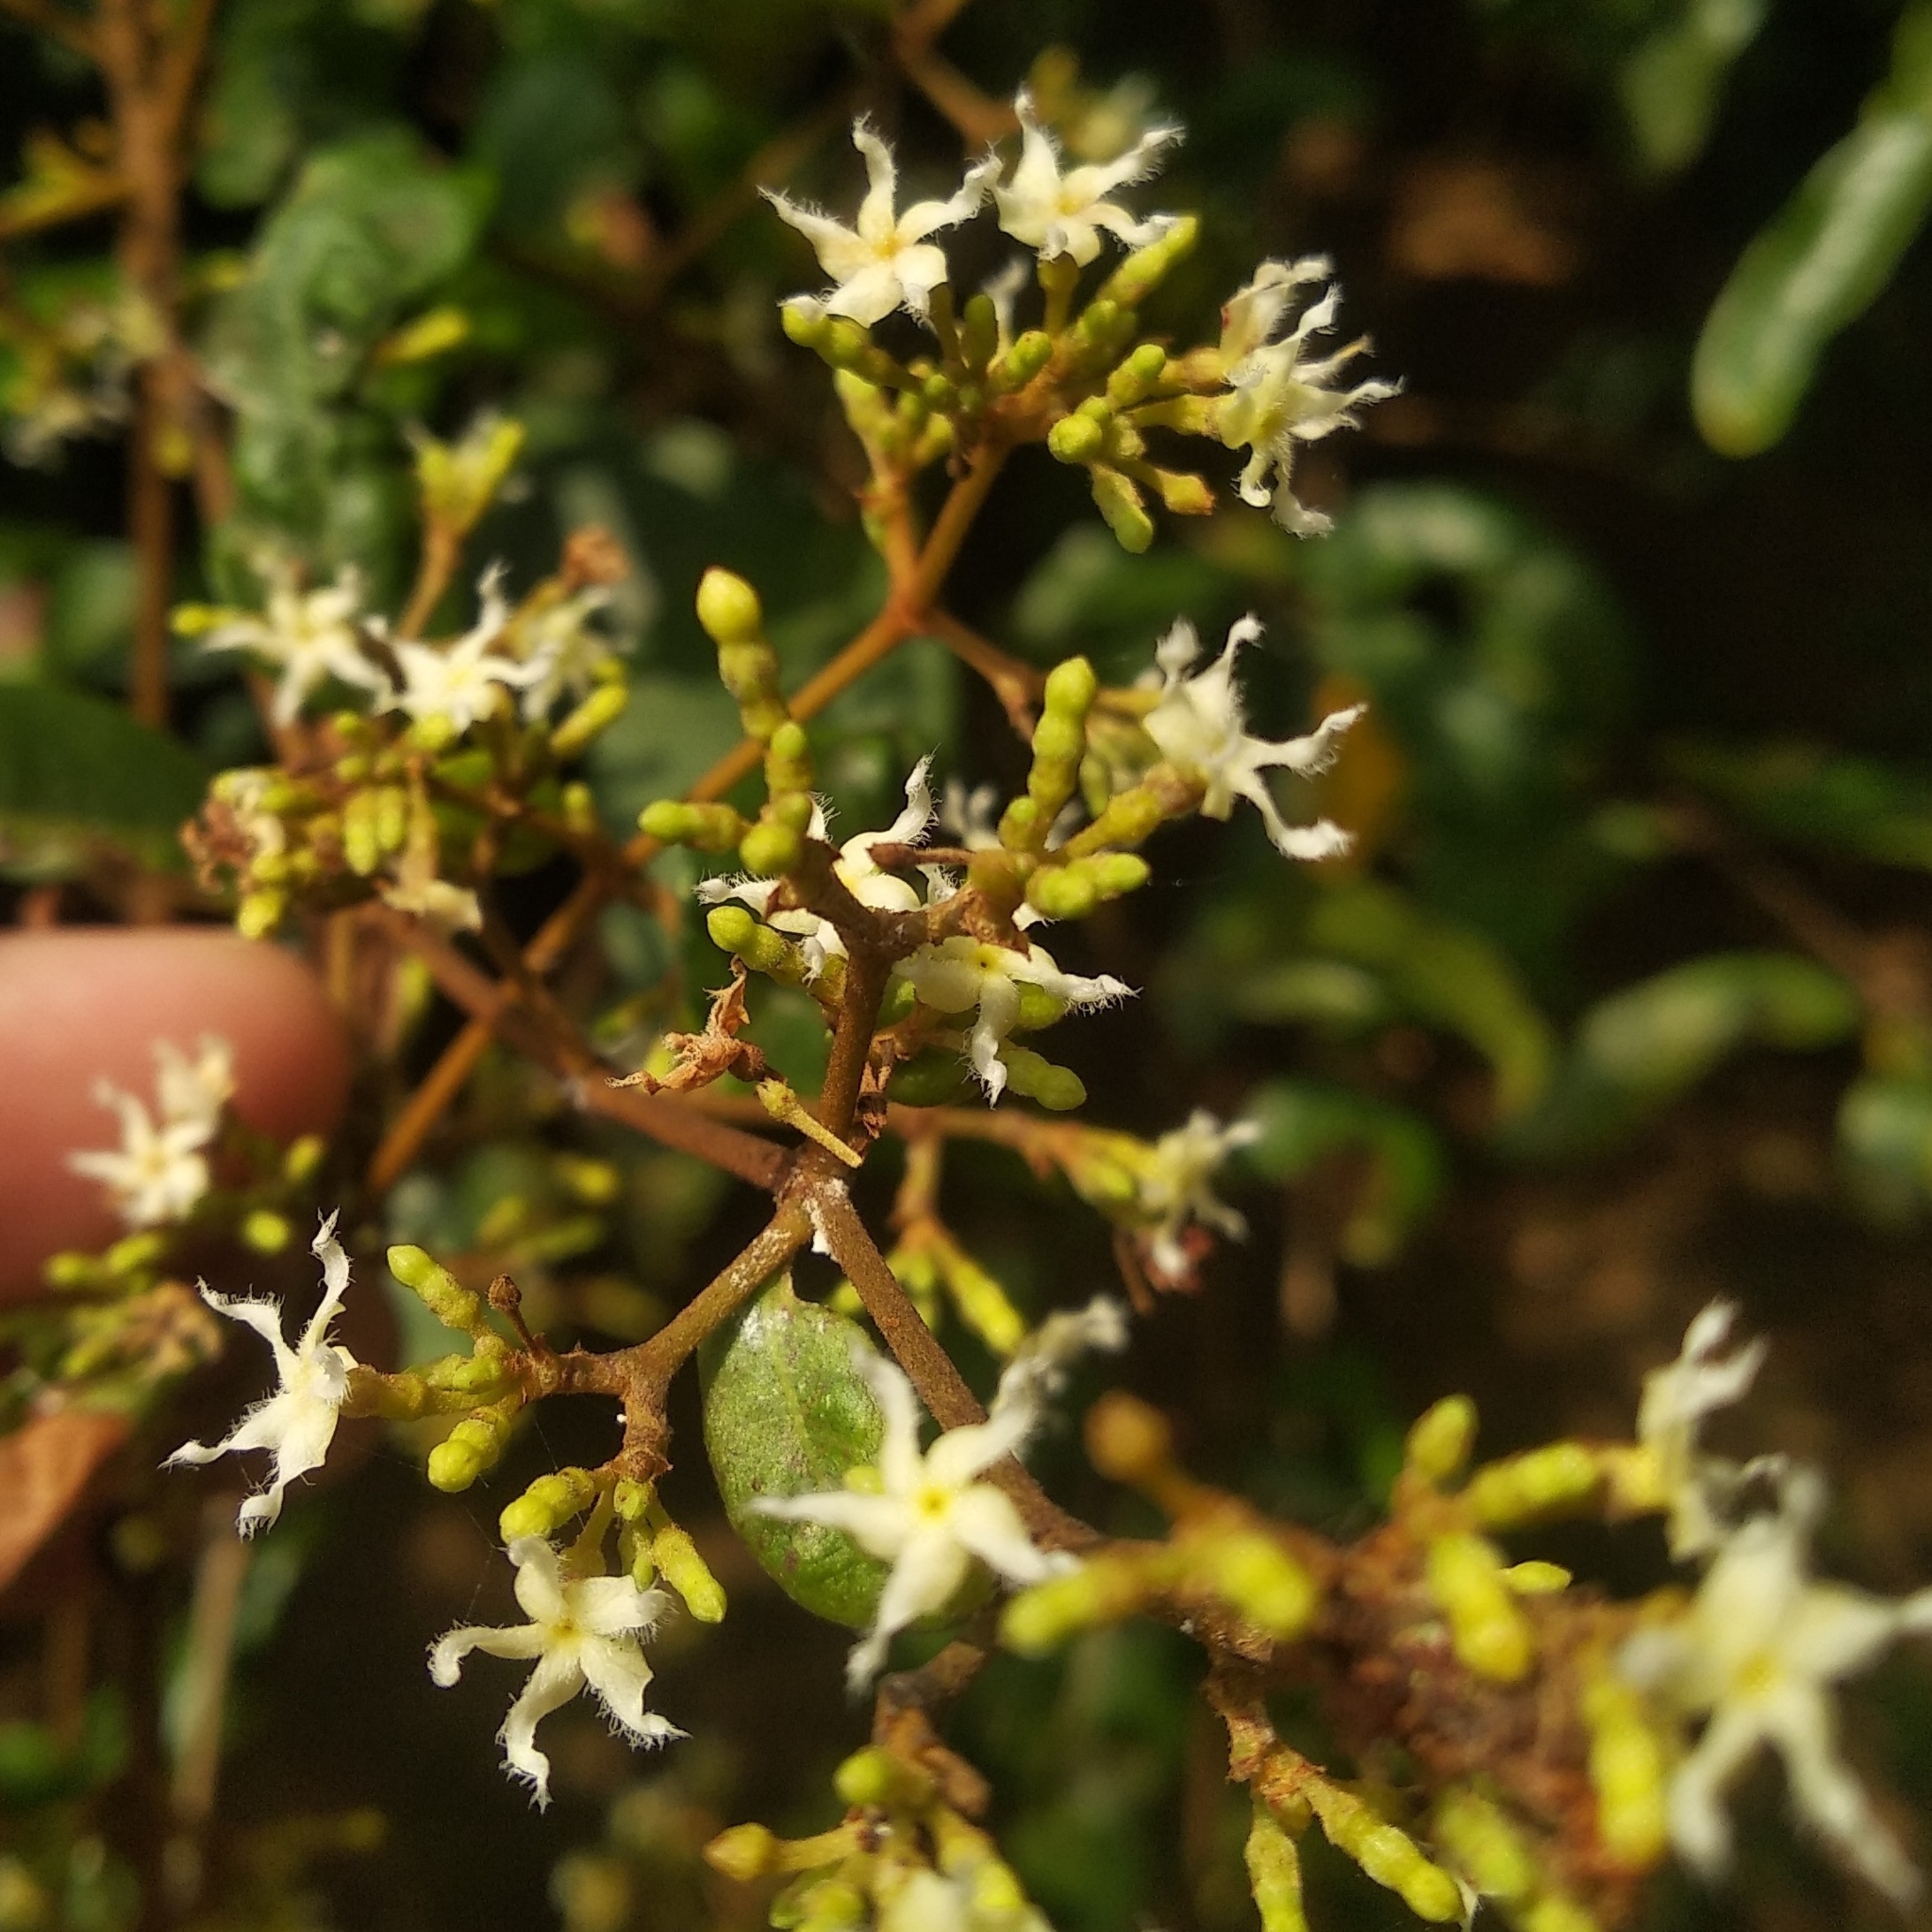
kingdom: Plantae
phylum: Tracheophyta
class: Magnoliopsida
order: Gentianales
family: Apocynaceae
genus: Ichnocarpus
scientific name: Ichnocarpus frutescens
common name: Ichnocarpus
